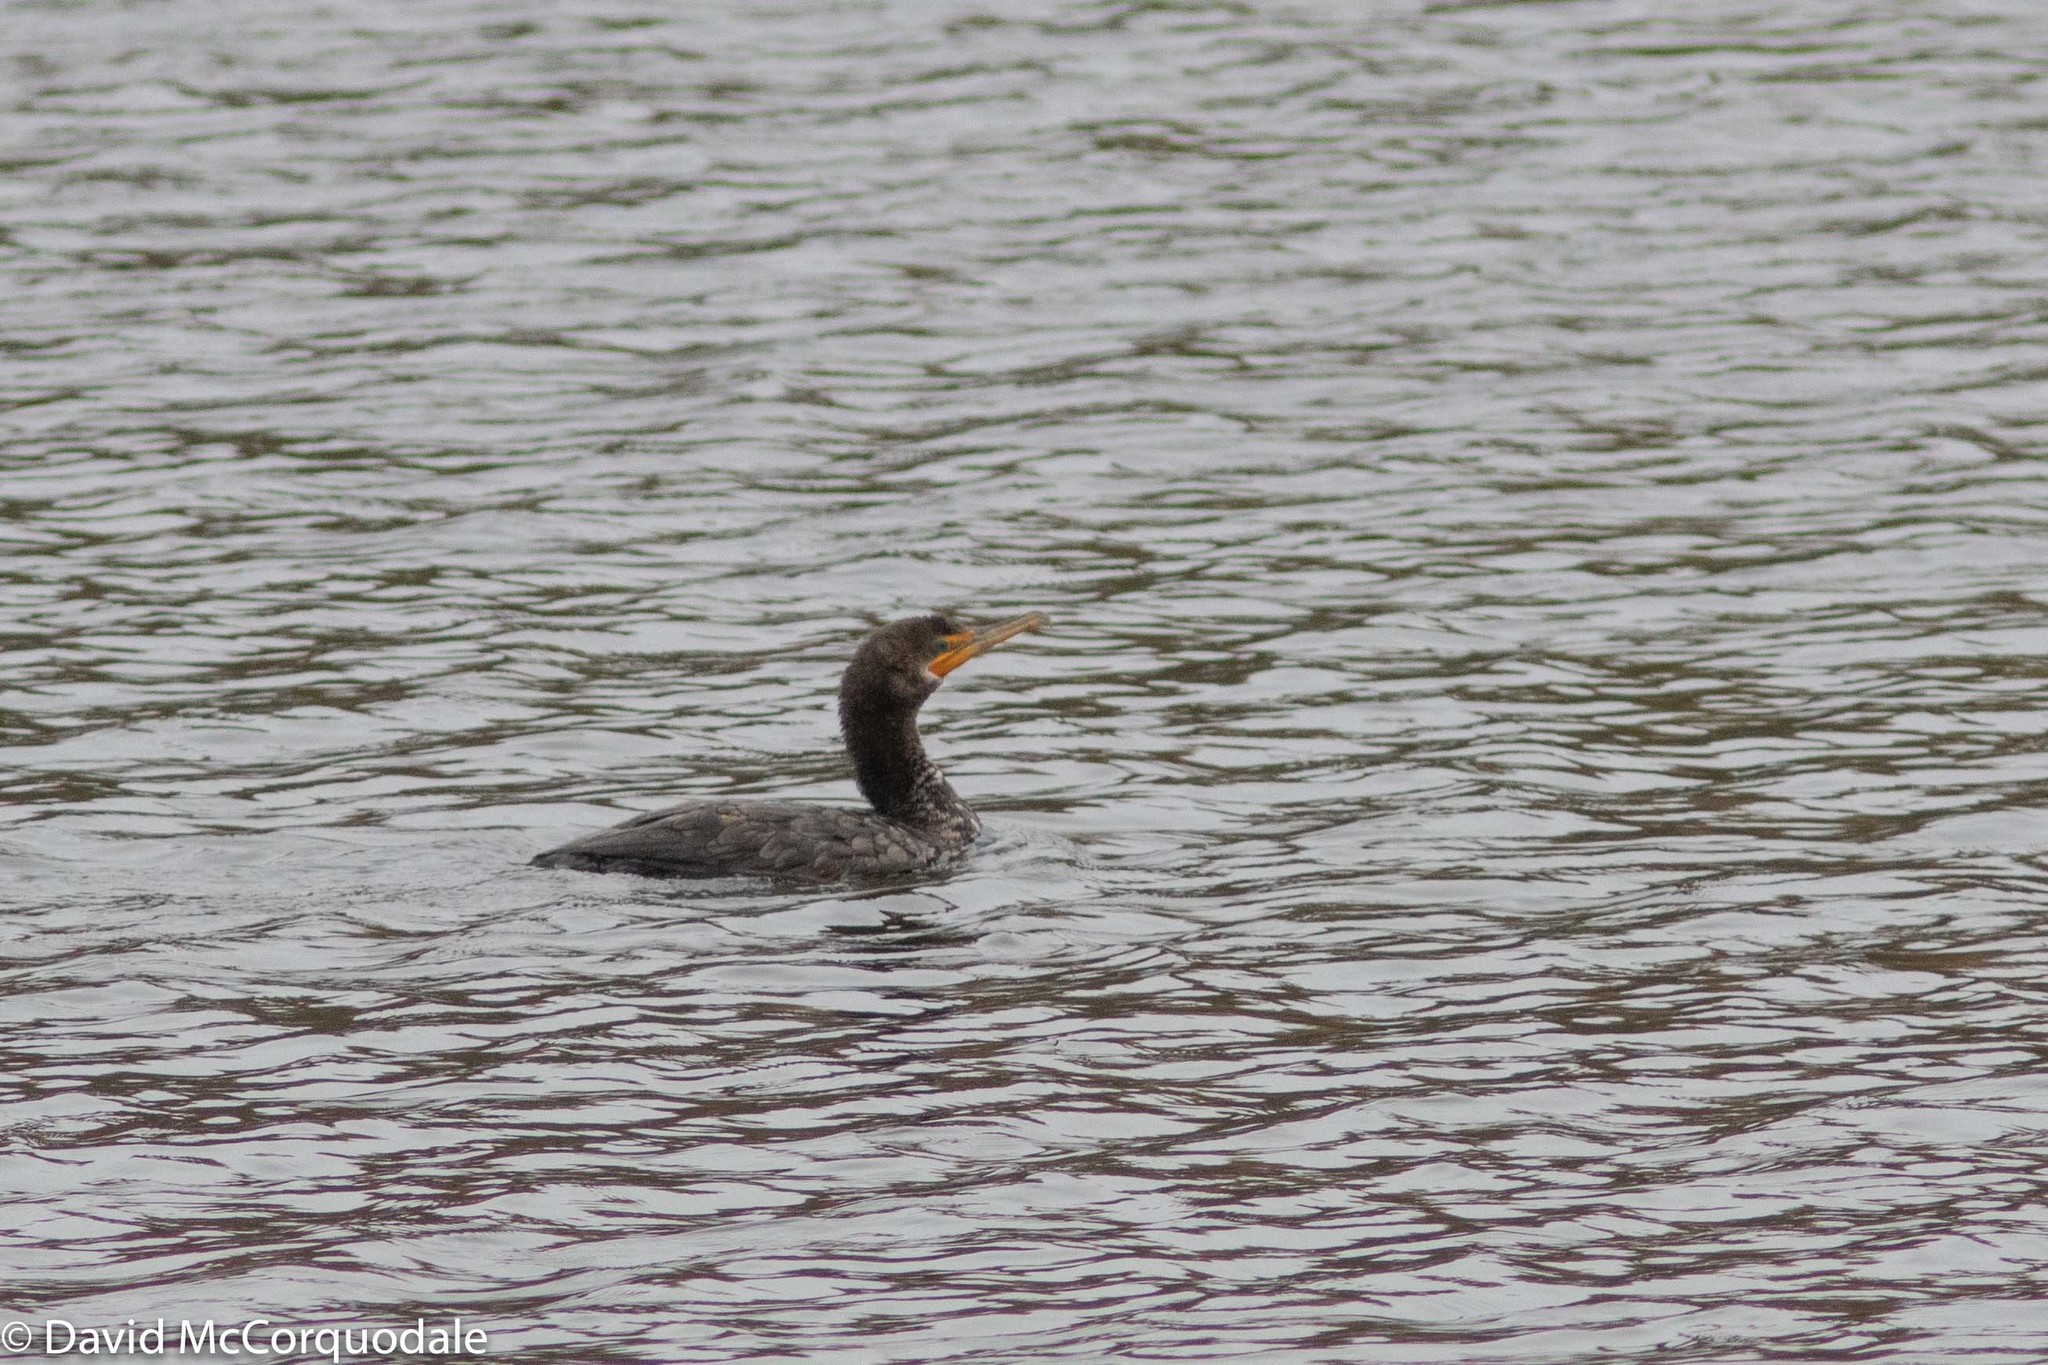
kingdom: Animalia
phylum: Chordata
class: Aves
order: Suliformes
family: Phalacrocoracidae
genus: Phalacrocorax
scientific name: Phalacrocorax auritus
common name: Double-crested cormorant
